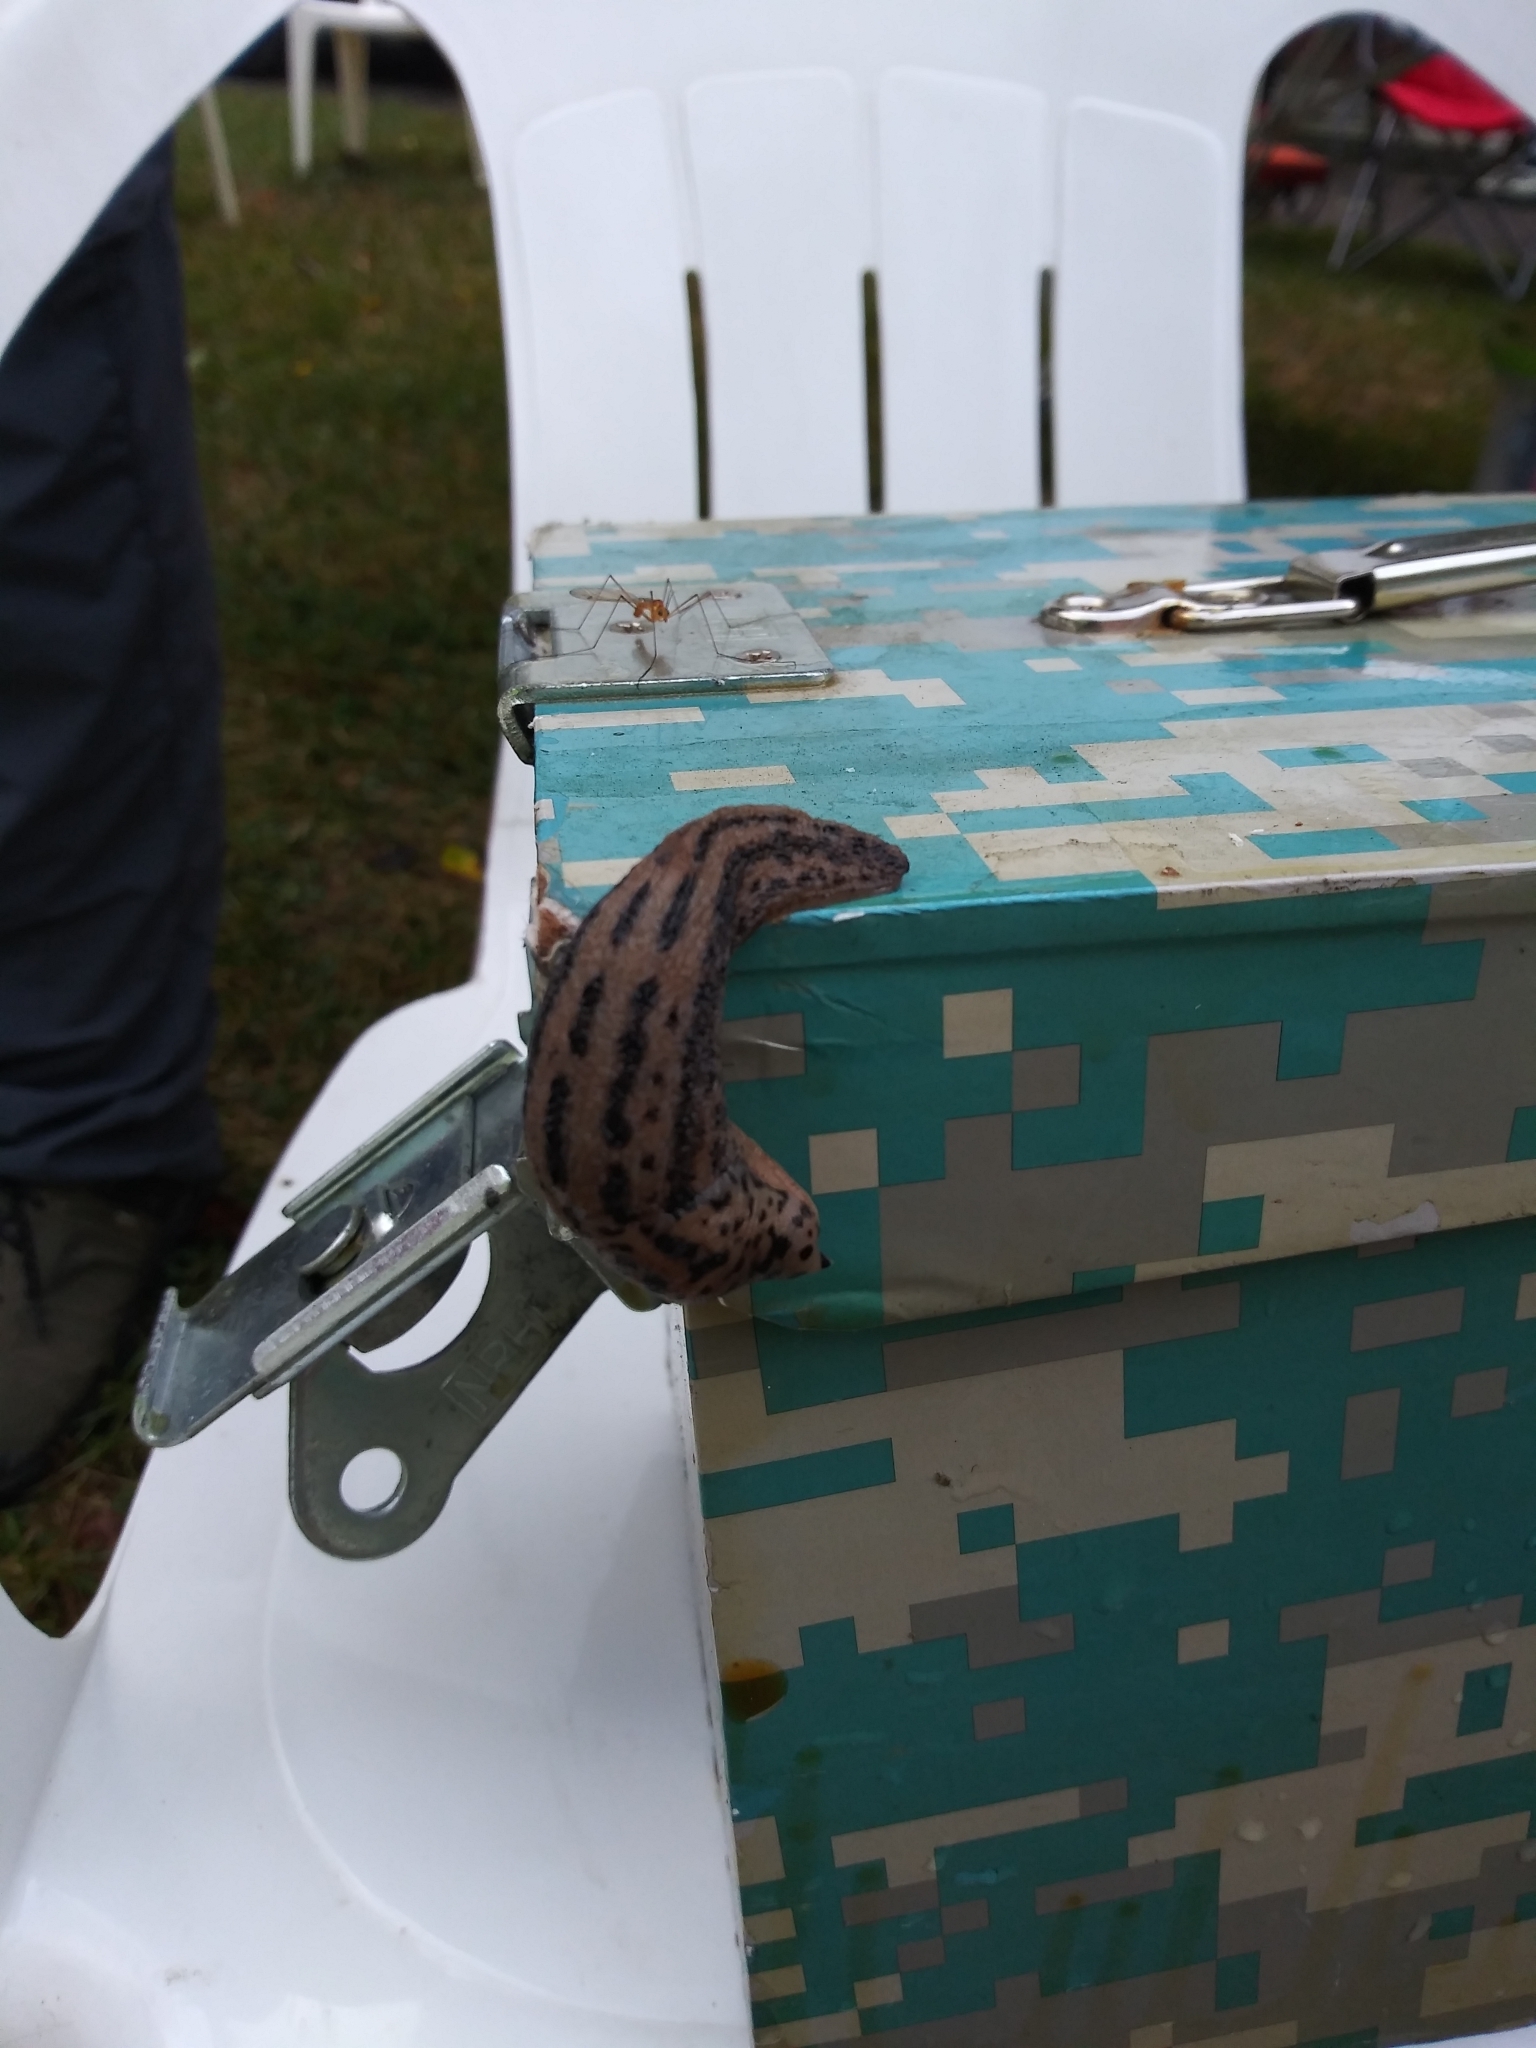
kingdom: Animalia
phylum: Mollusca
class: Gastropoda
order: Stylommatophora
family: Limacidae
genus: Limax
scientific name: Limax maximus
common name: Great grey slug
